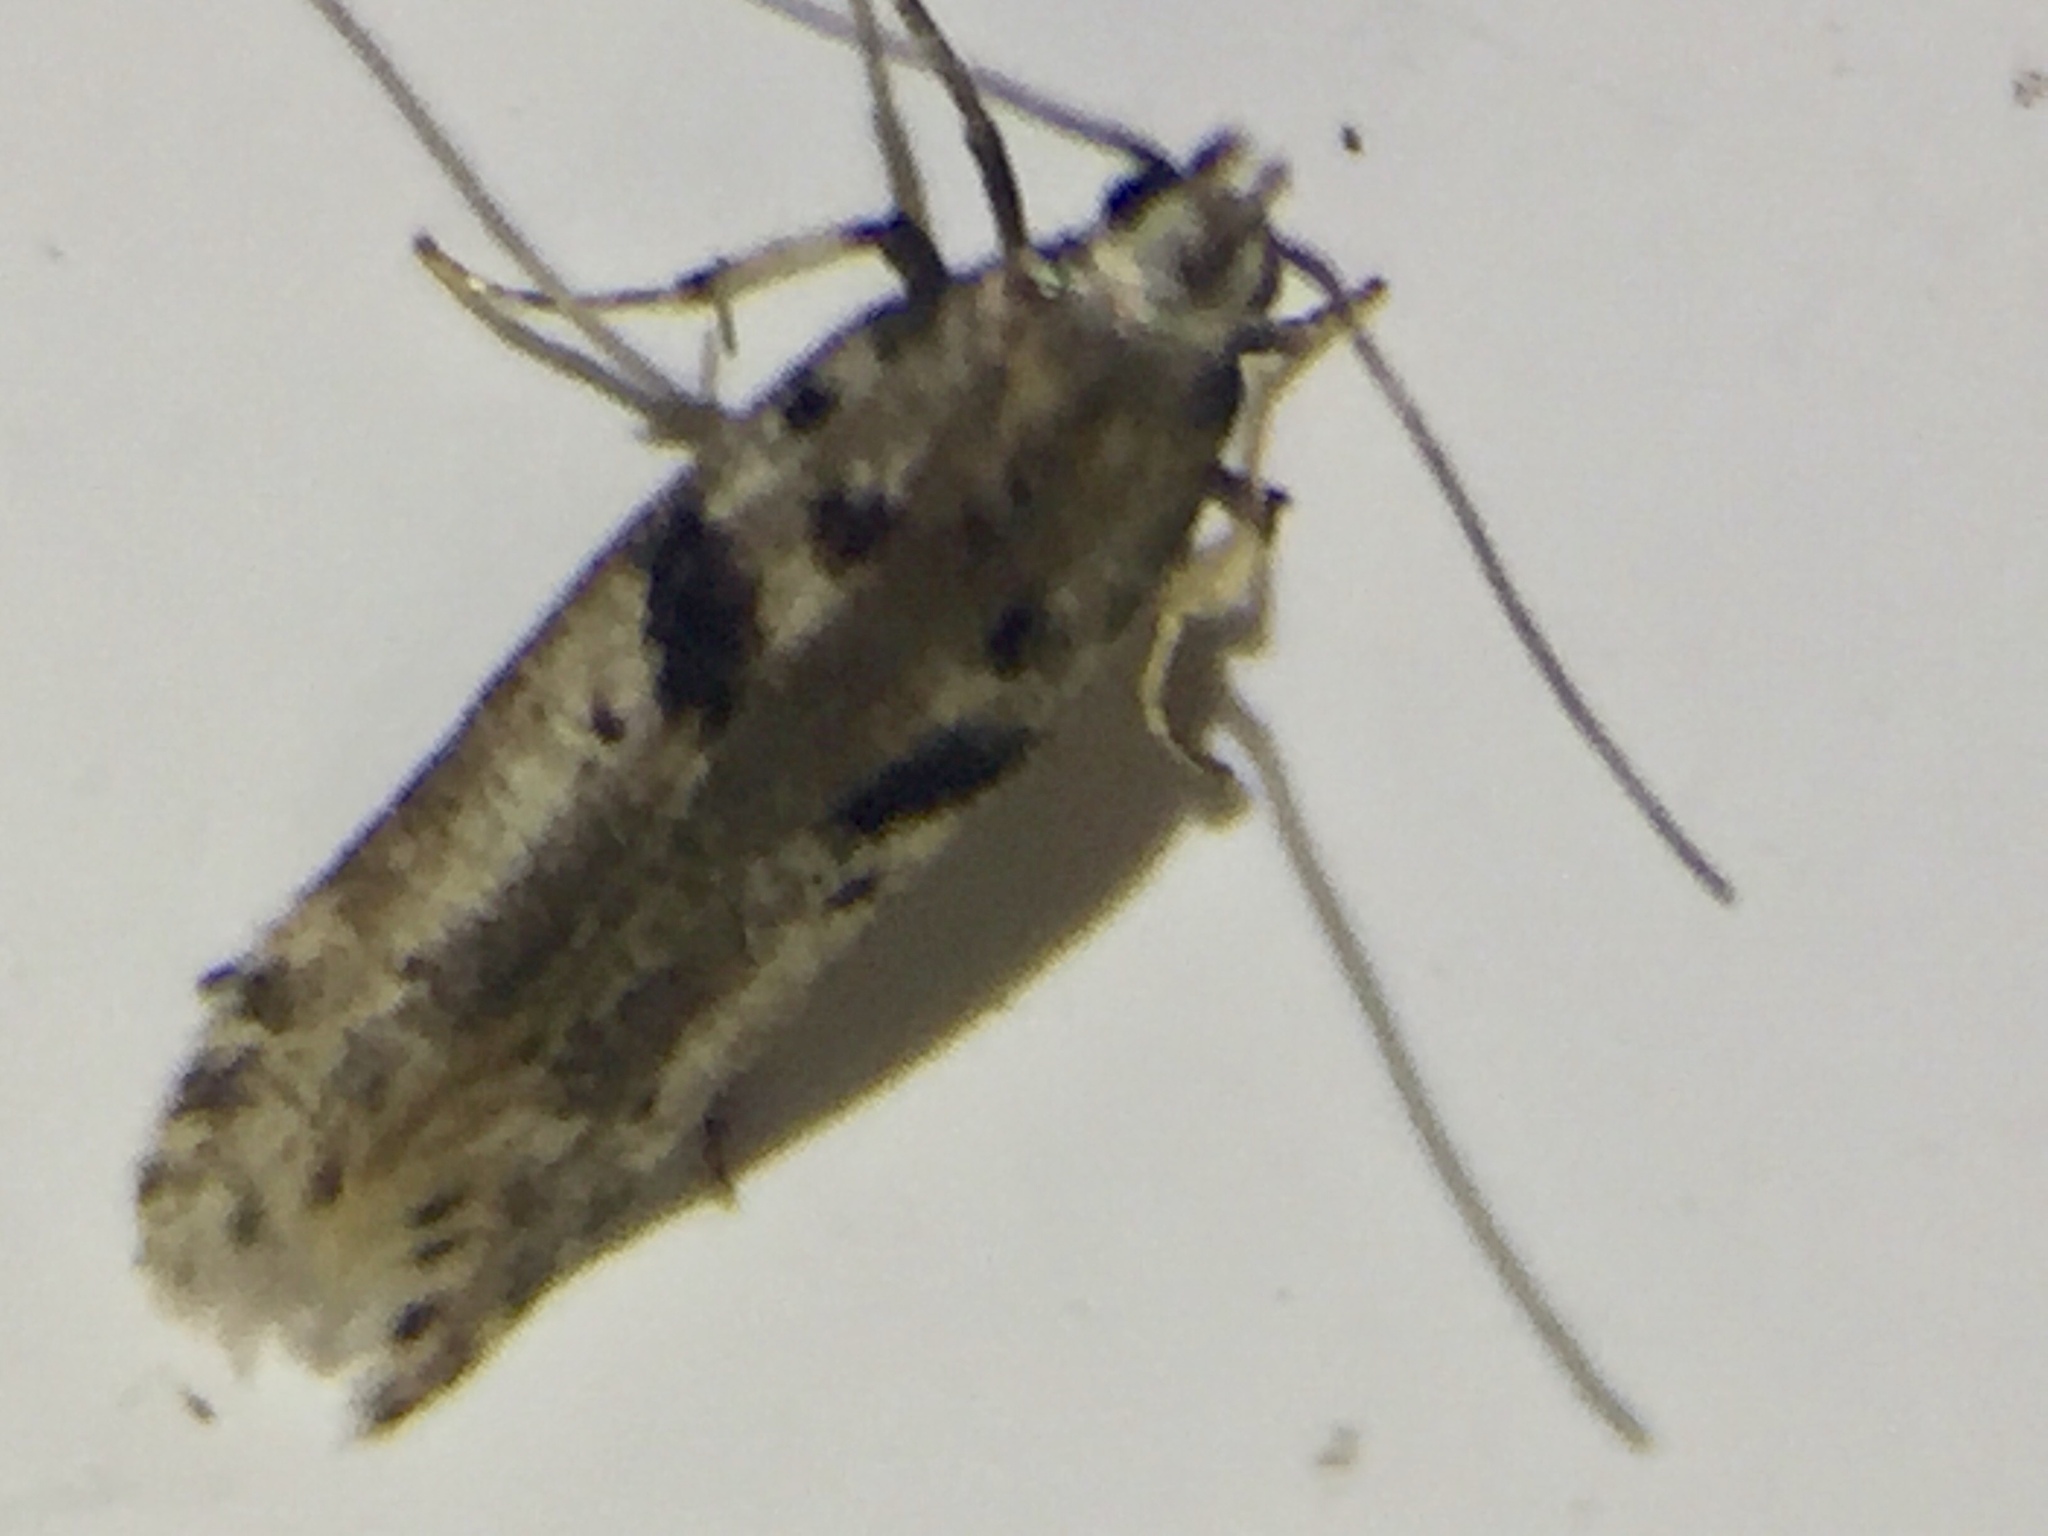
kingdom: Animalia
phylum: Arthropoda
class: Insecta
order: Lepidoptera
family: Gelechiidae
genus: Aristotelia
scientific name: Aristotelia paradesma
